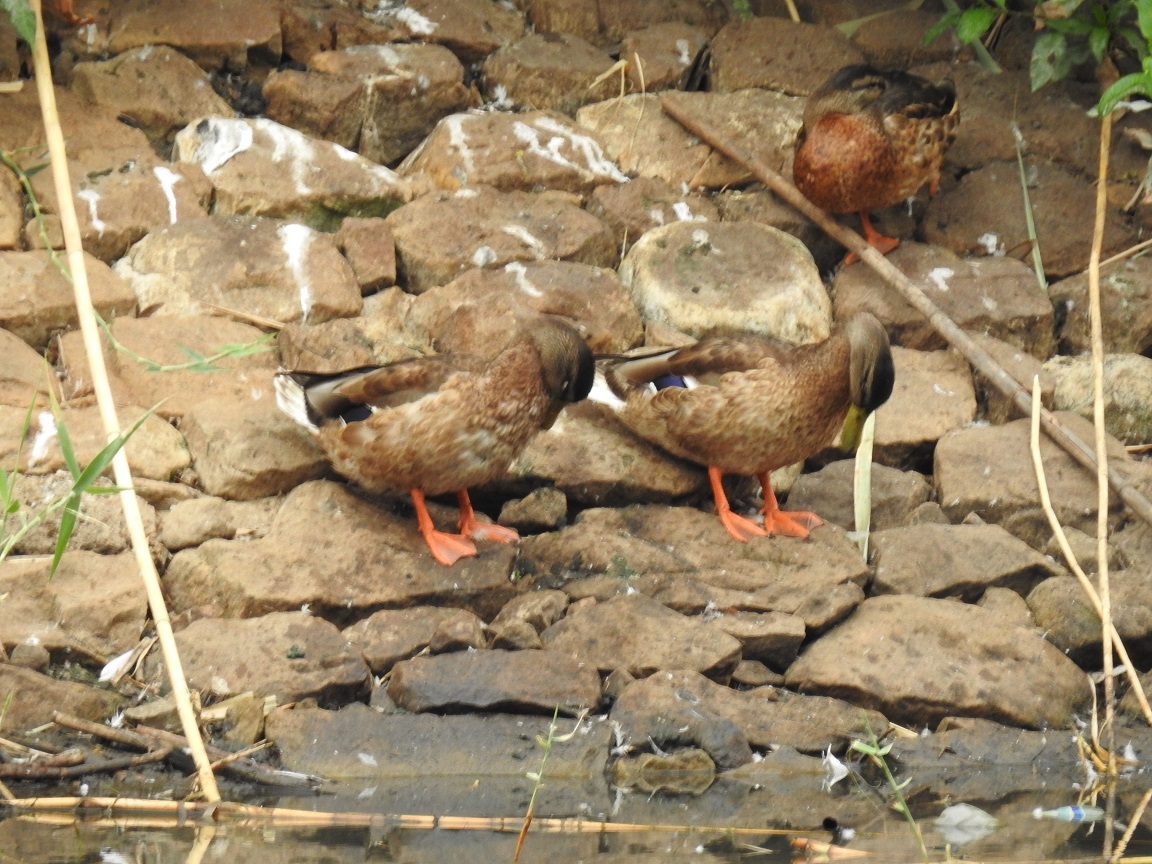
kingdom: Animalia
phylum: Chordata
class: Aves
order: Anseriformes
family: Anatidae
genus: Anas
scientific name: Anas platyrhynchos
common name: Mallard
